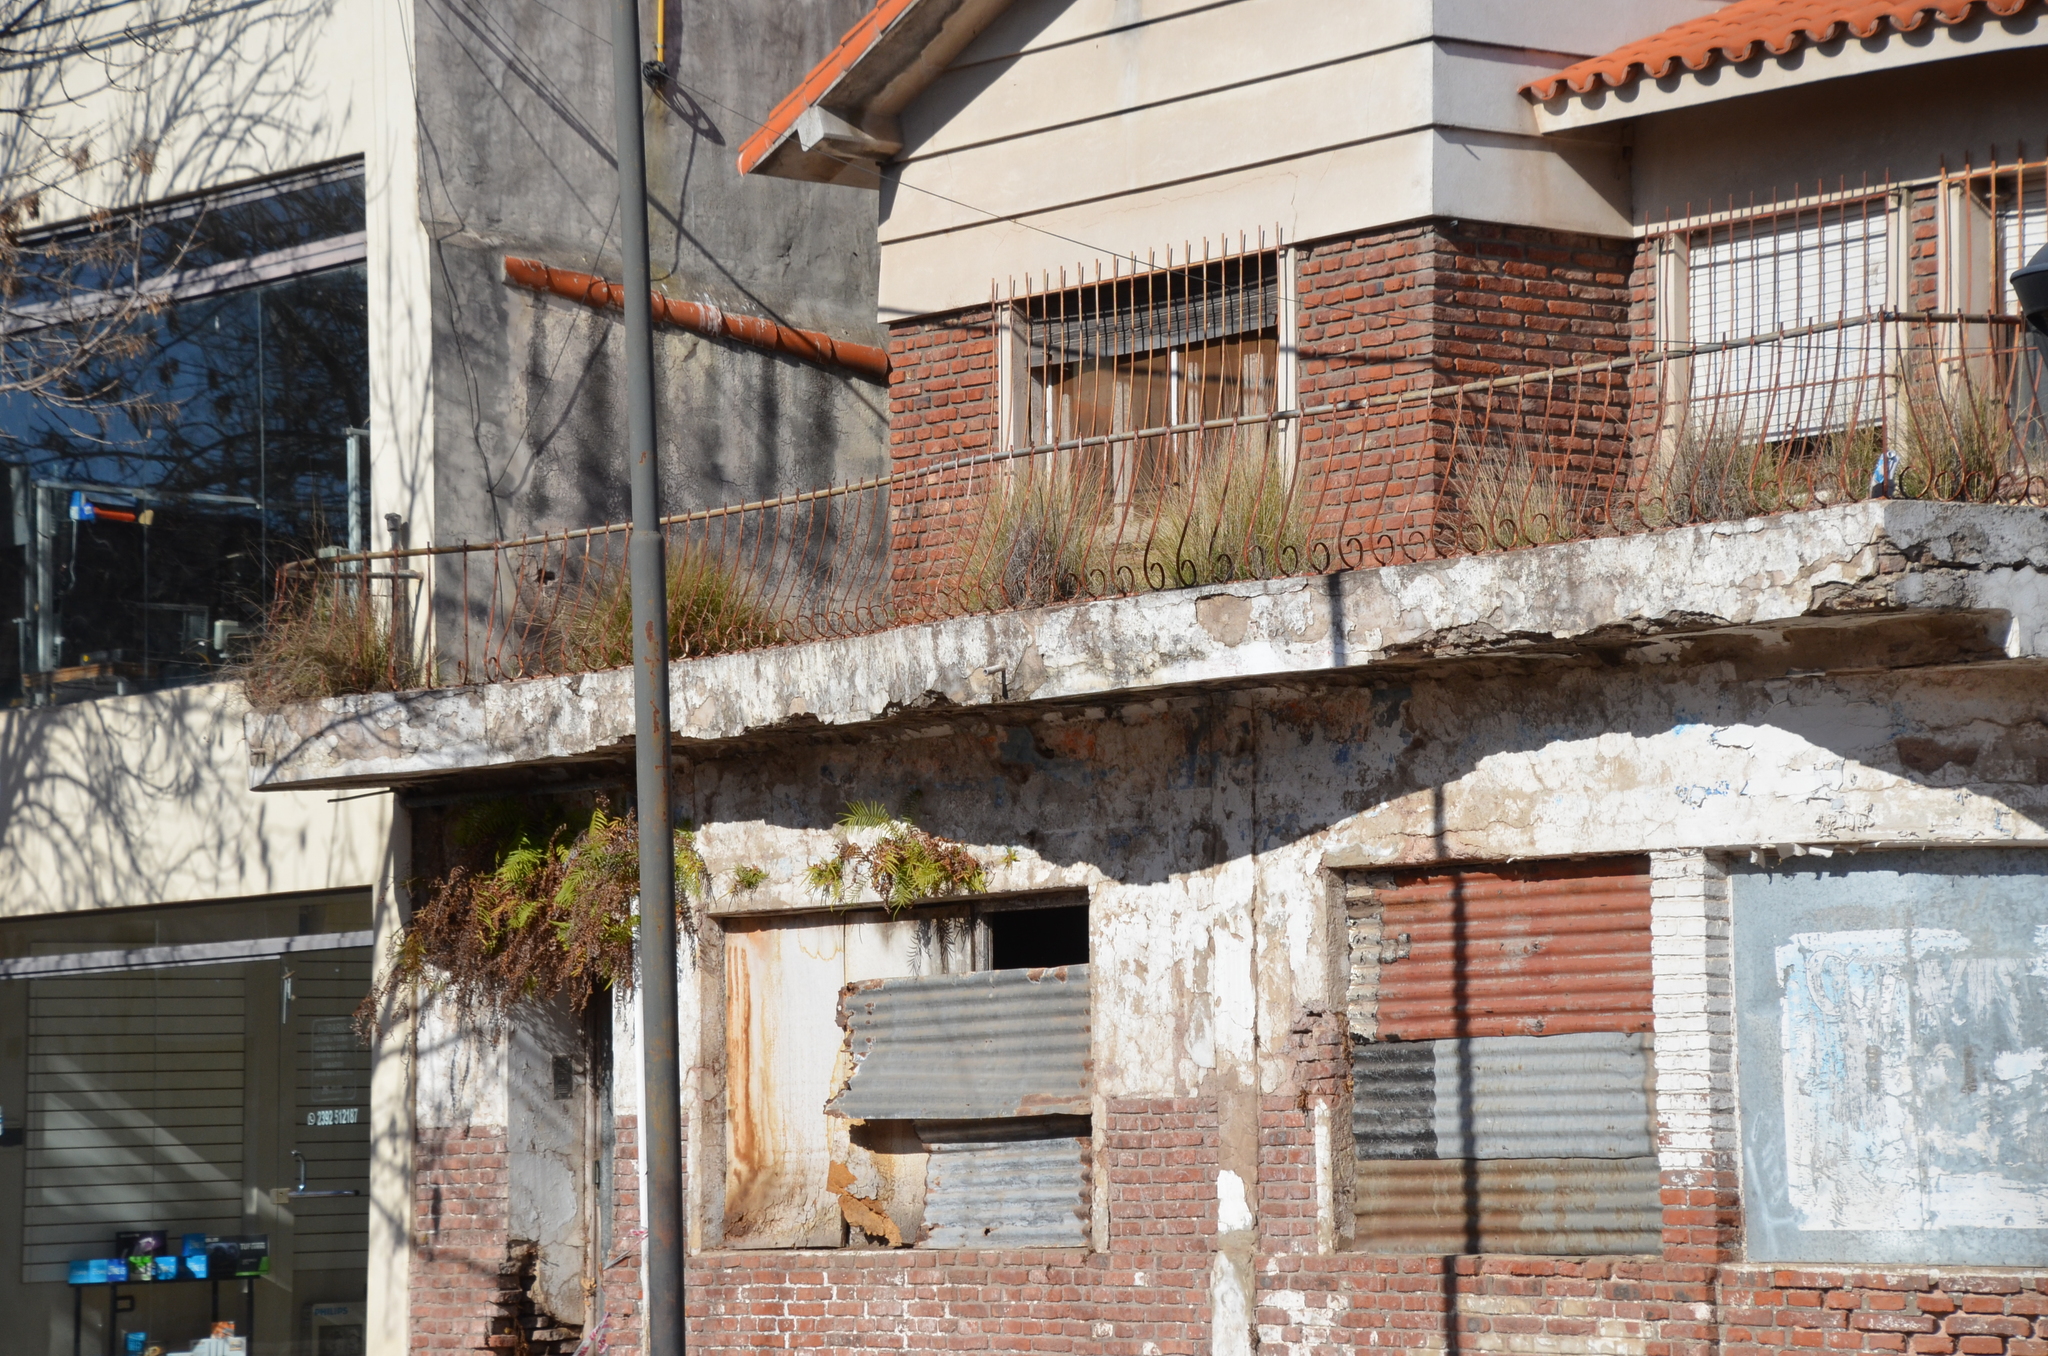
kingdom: Plantae
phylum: Tracheophyta
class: Polypodiopsida
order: Polypodiales
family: Pteridaceae
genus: Pteris
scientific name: Pteris vittata
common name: Ladder brake
